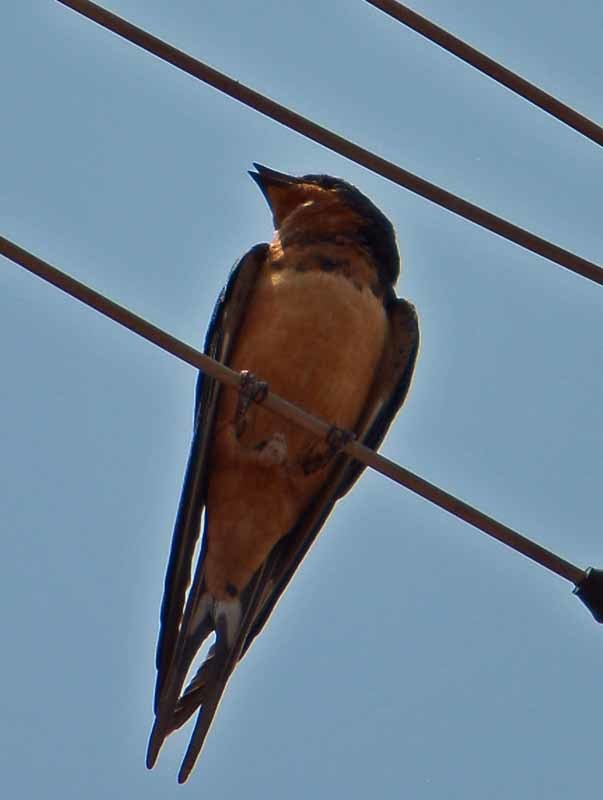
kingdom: Animalia
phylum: Chordata
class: Aves
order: Passeriformes
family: Hirundinidae
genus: Hirundo
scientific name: Hirundo rustica
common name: Barn swallow
